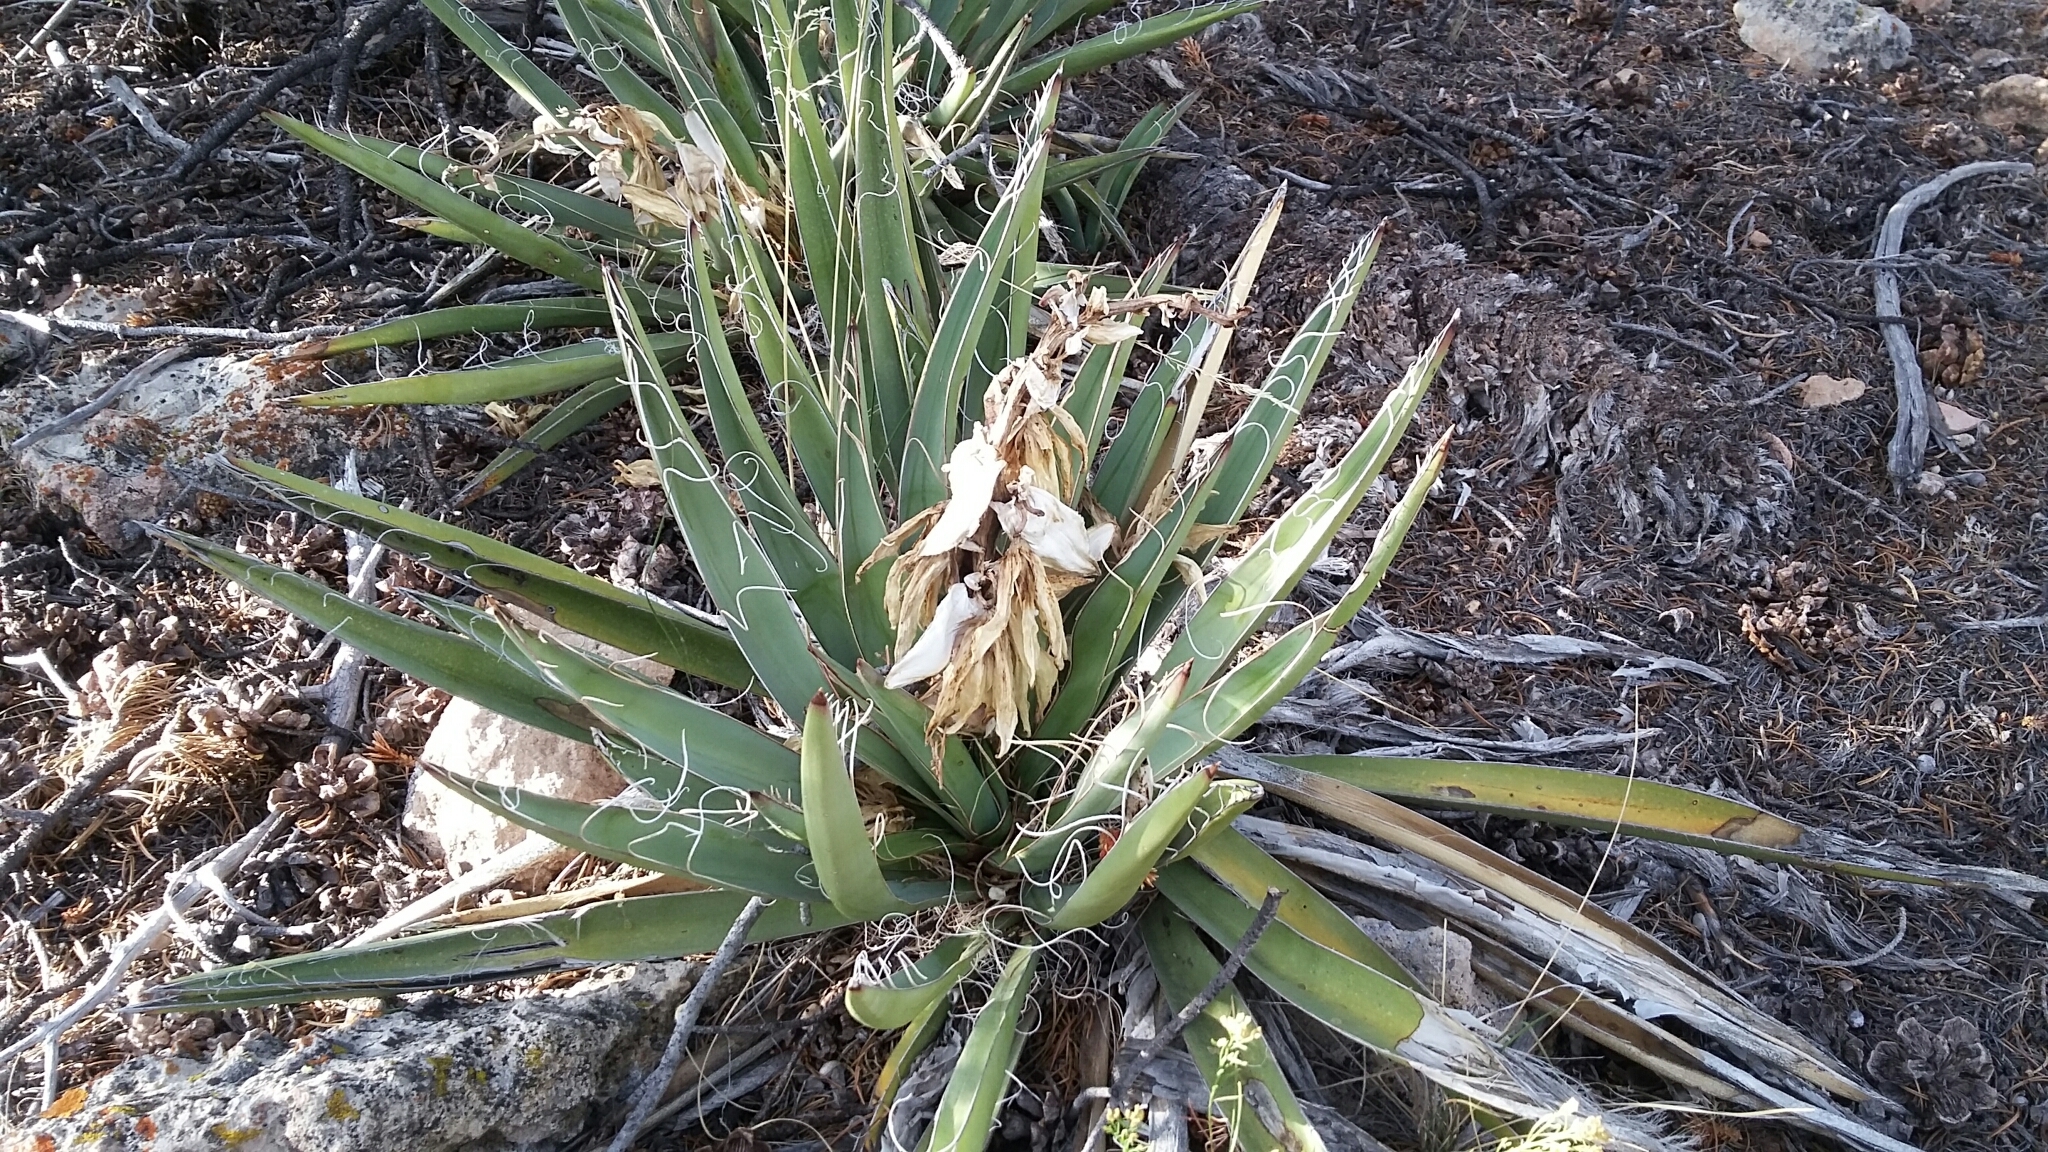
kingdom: Plantae
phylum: Tracheophyta
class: Liliopsida
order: Asparagales
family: Asparagaceae
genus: Yucca
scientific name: Yucca baccata
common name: Banana yucca
